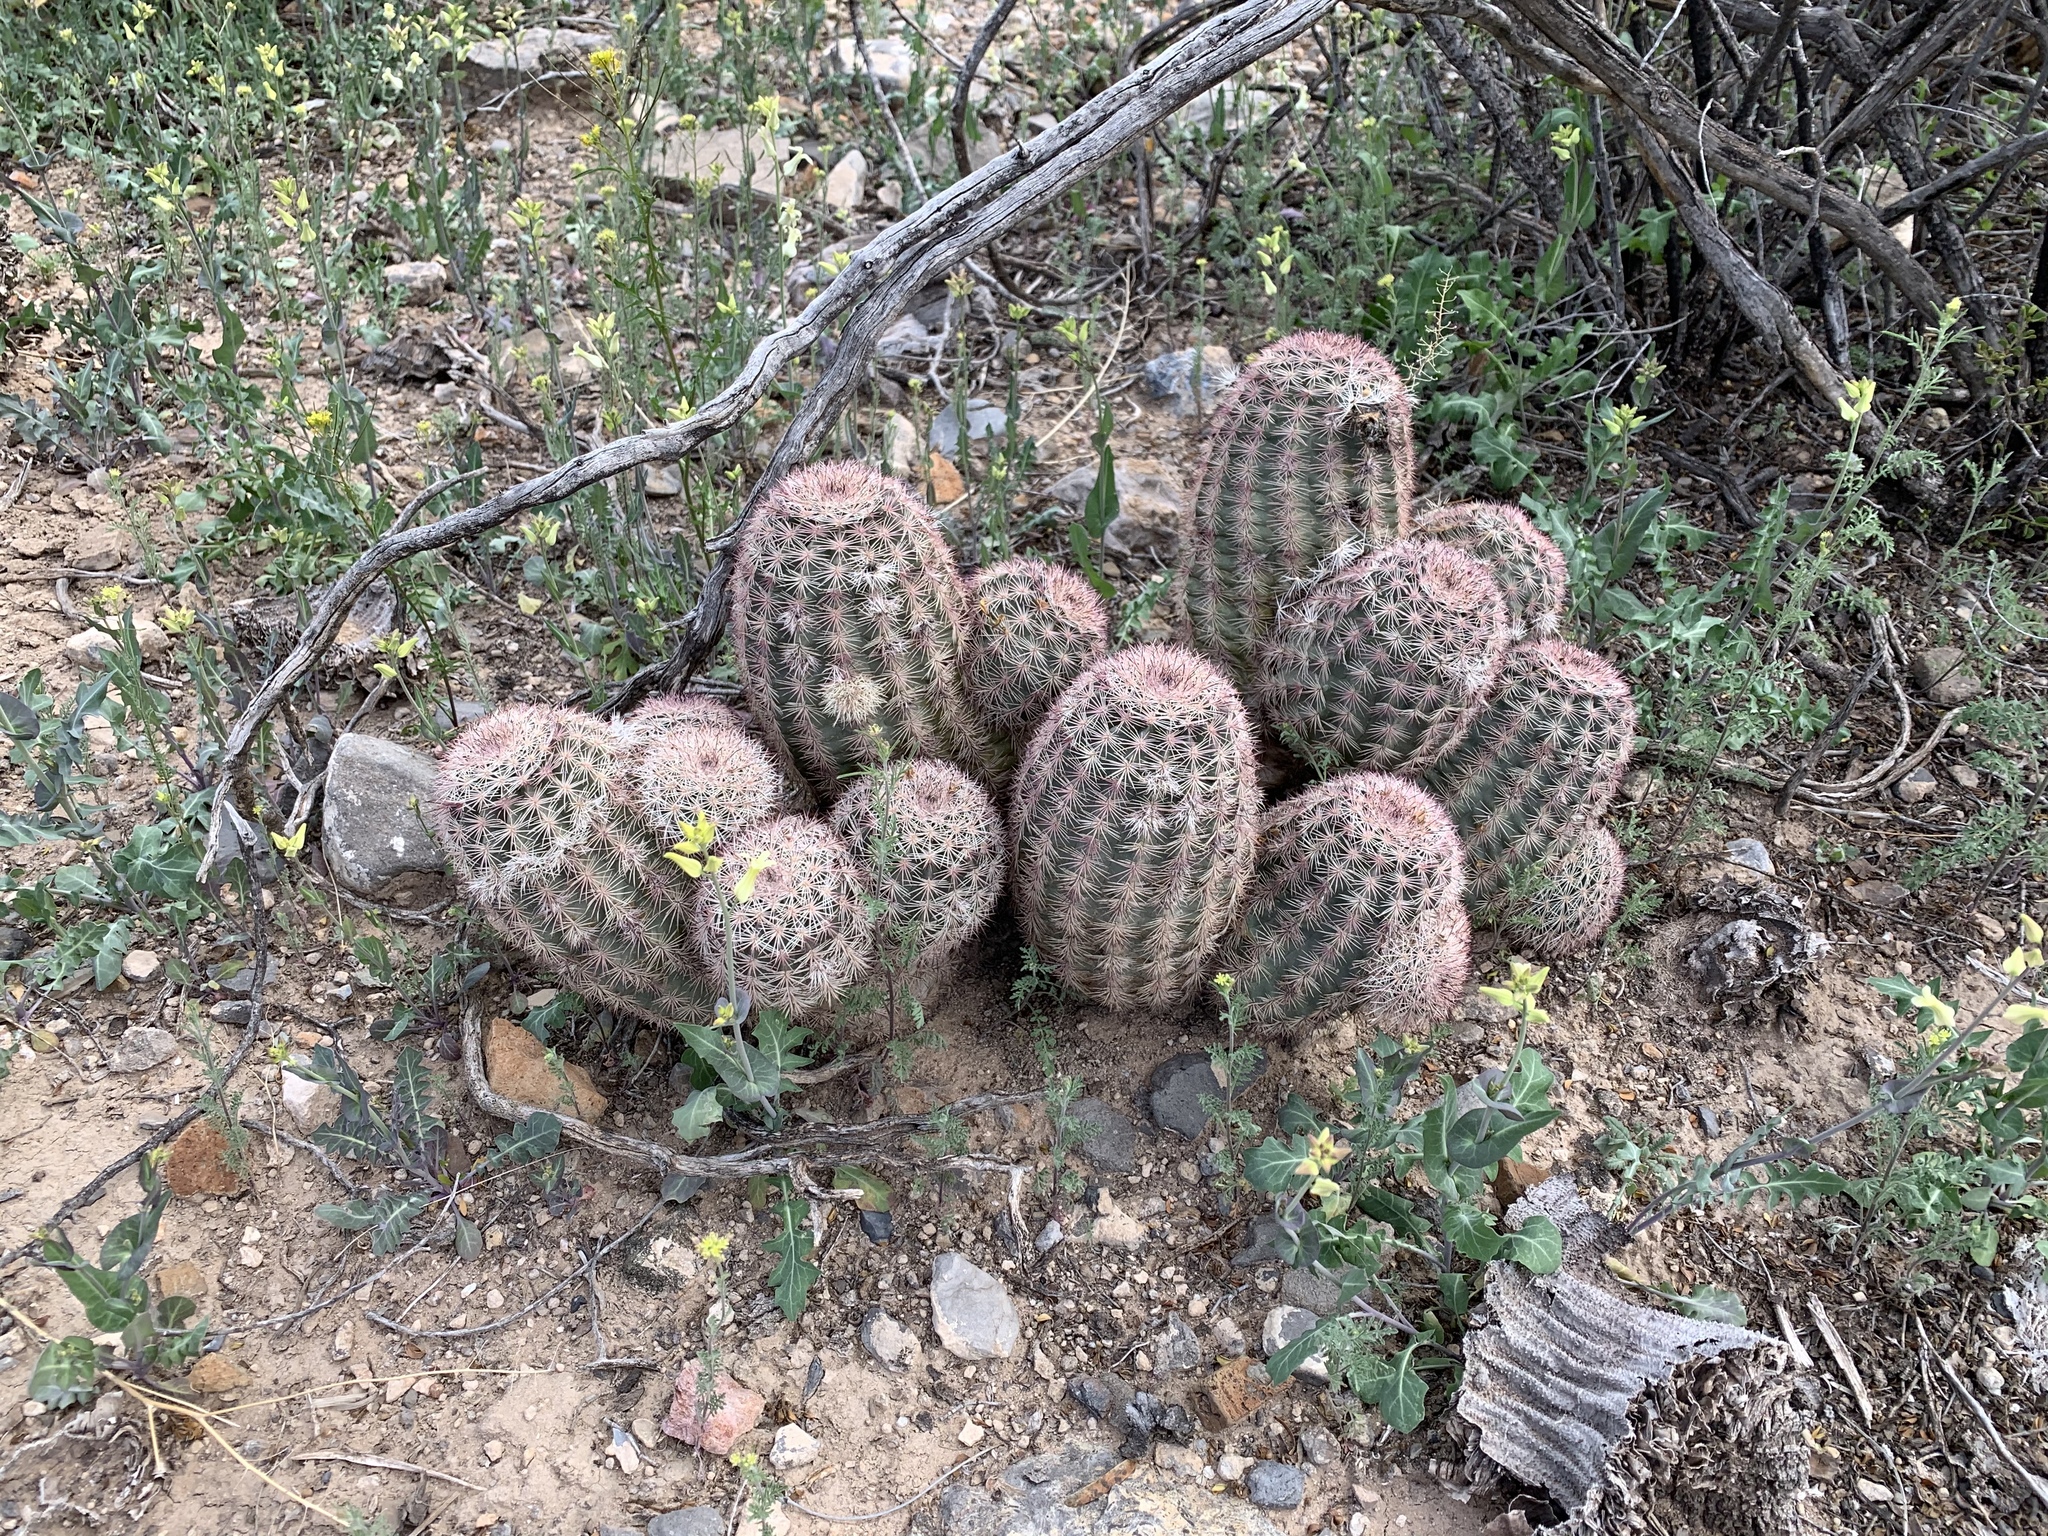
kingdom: Plantae
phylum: Tracheophyta
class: Magnoliopsida
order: Caryophyllales
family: Cactaceae
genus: Echinocereus
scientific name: Echinocereus dasyacanthus
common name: Spiny hedgehog cactus
